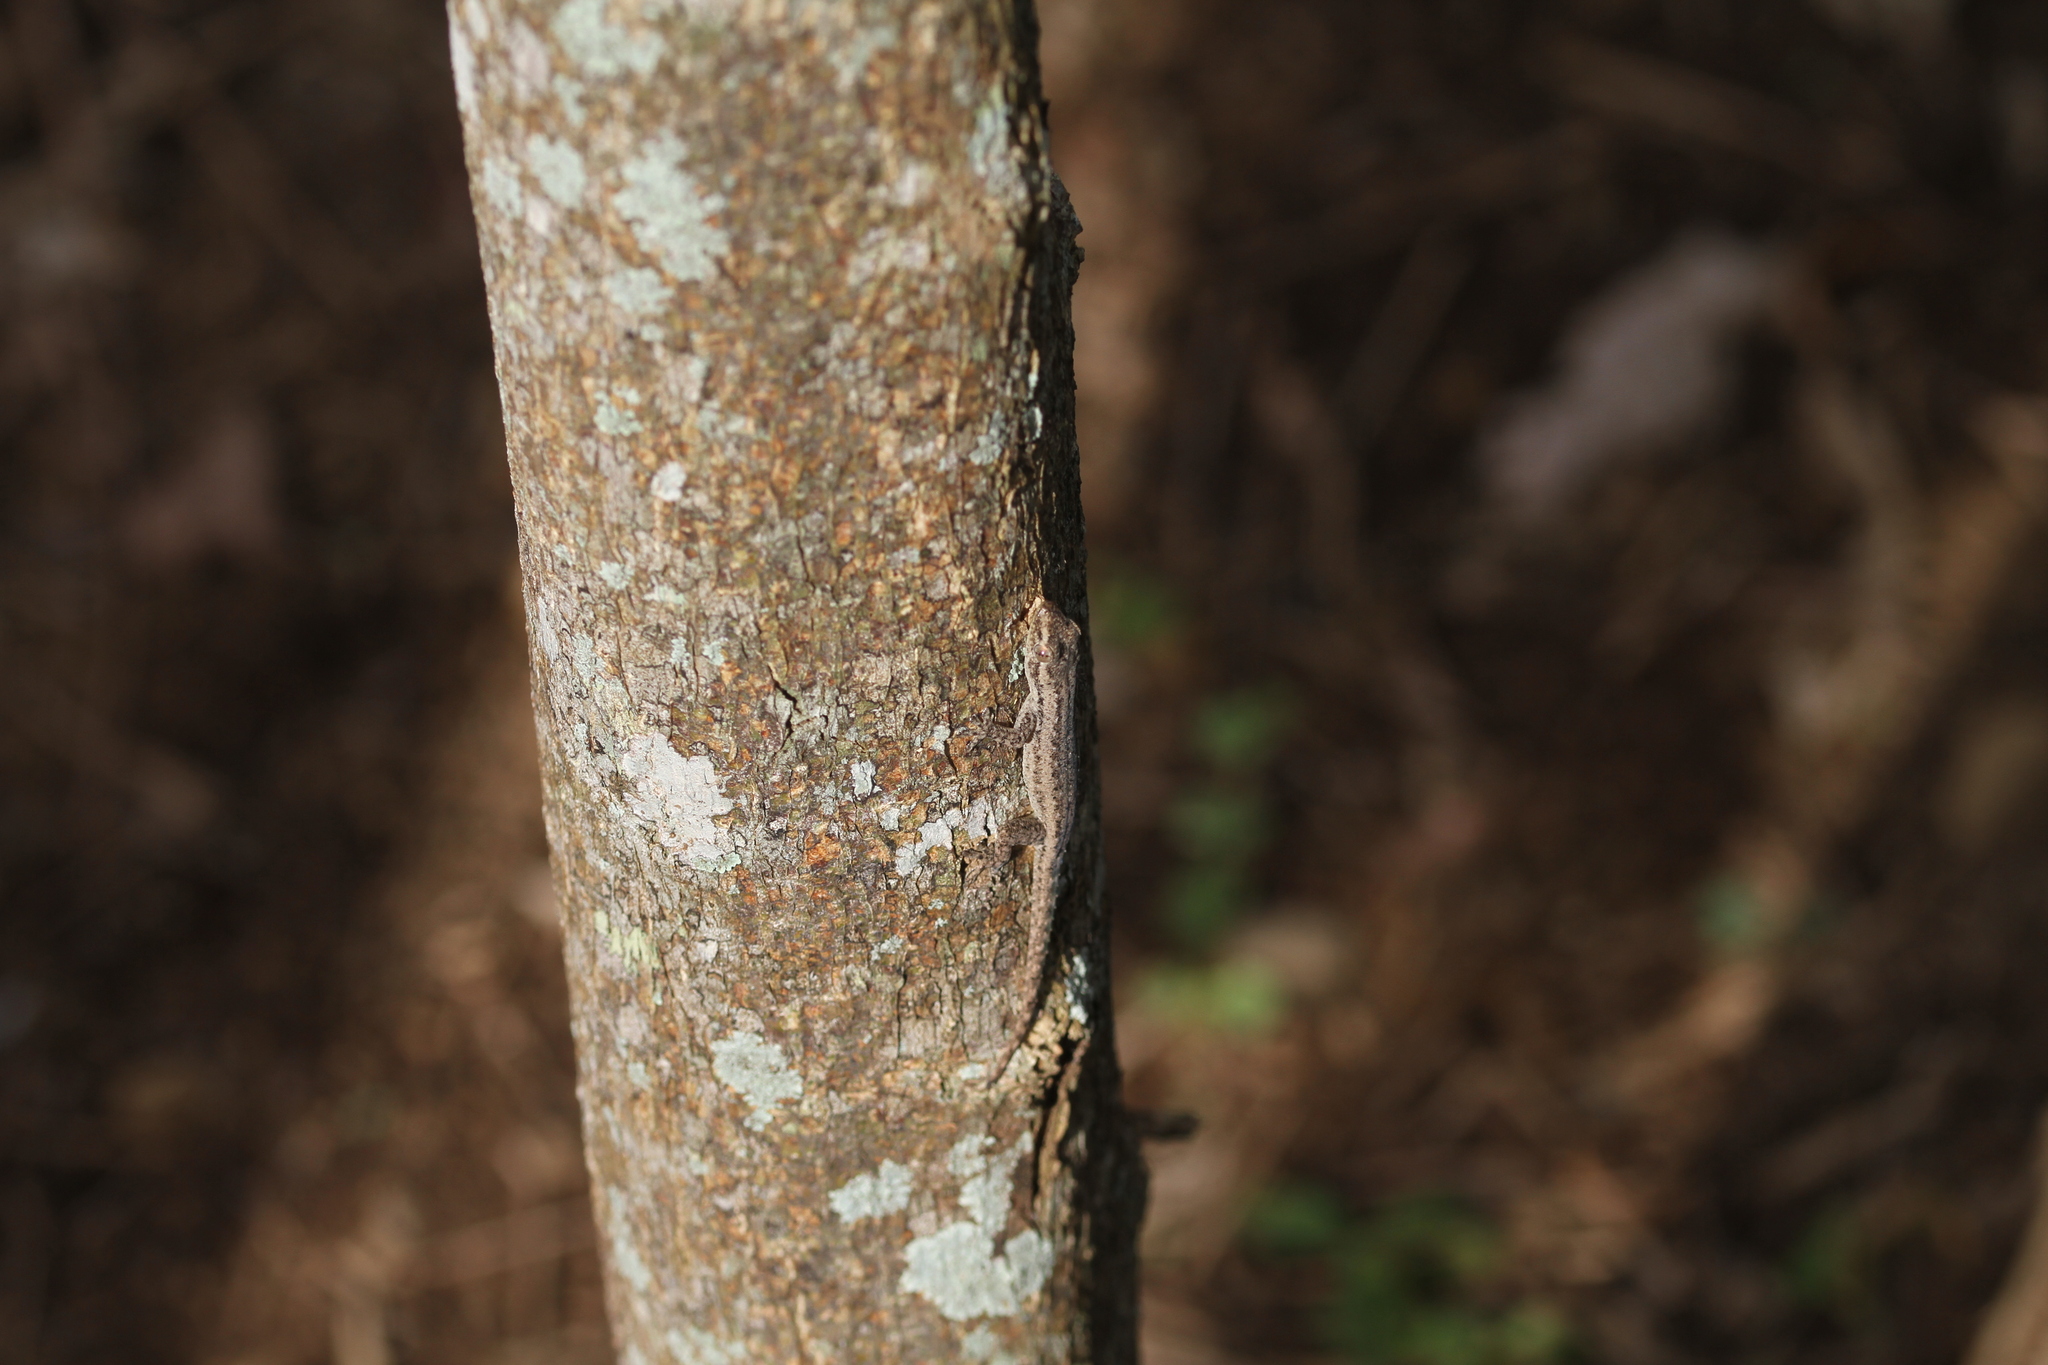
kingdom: Animalia
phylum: Chordata
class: Squamata
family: Gekkonidae
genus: Hemidactylus
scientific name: Hemidactylus frenatus
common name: Common house gecko
